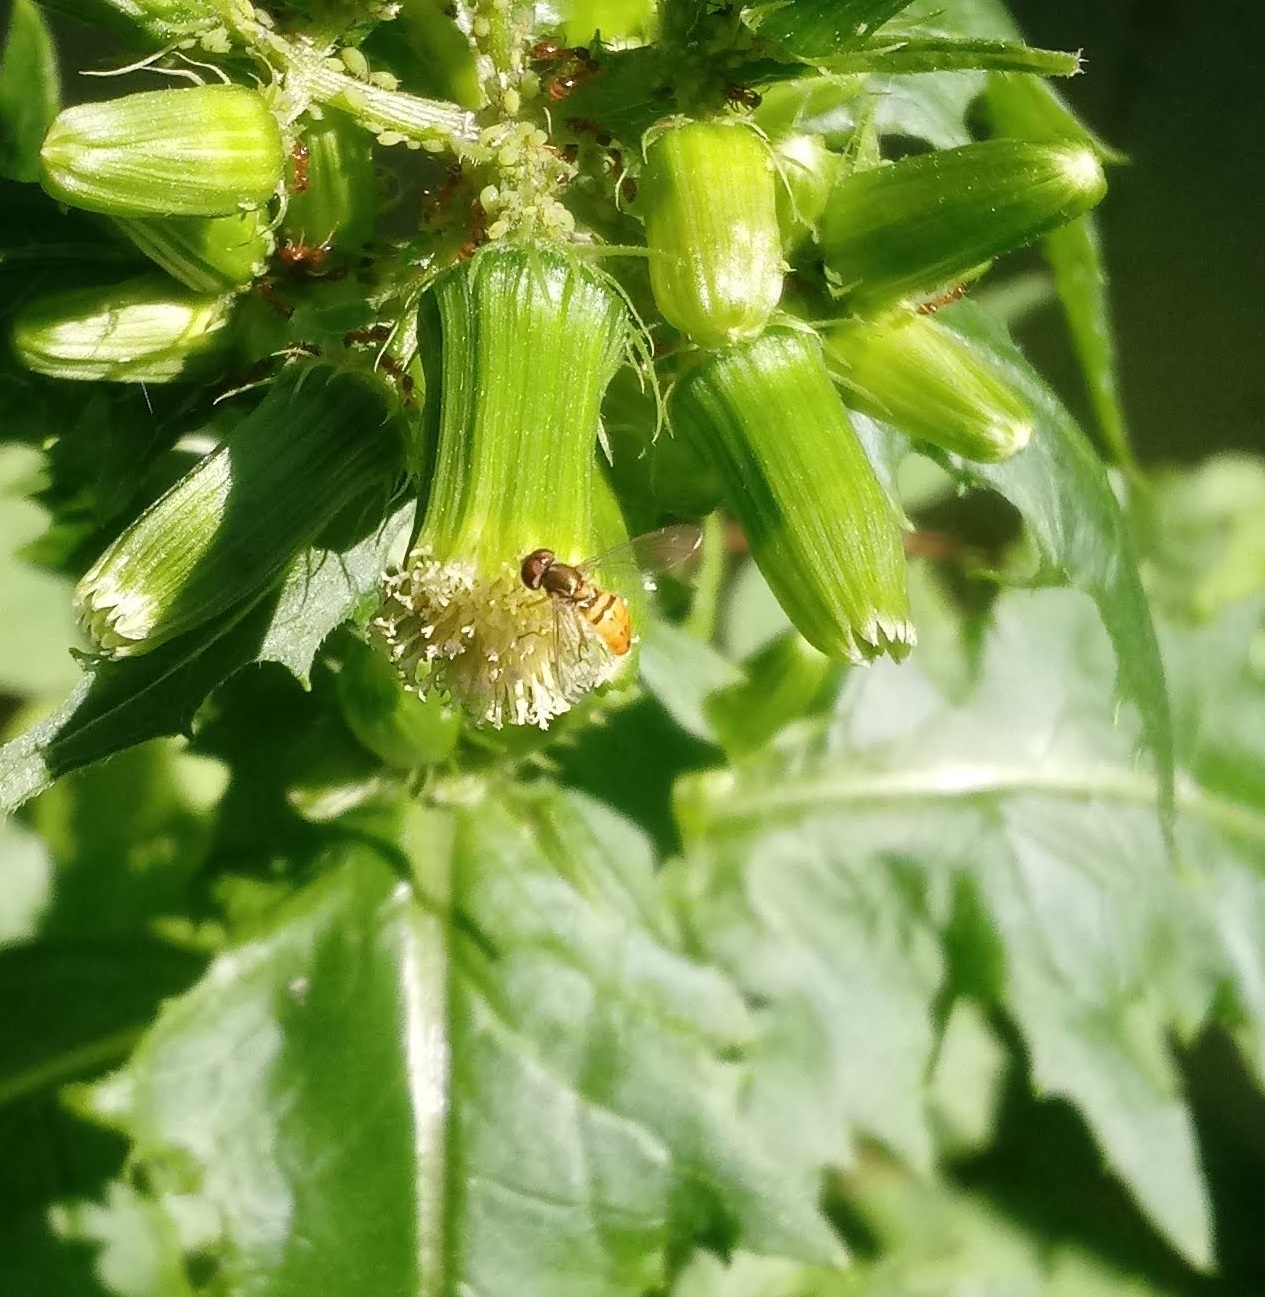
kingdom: Animalia
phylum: Arthropoda
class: Insecta
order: Diptera
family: Syrphidae
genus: Toxomerus
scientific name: Toxomerus marginatus
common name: Syrphid fly
